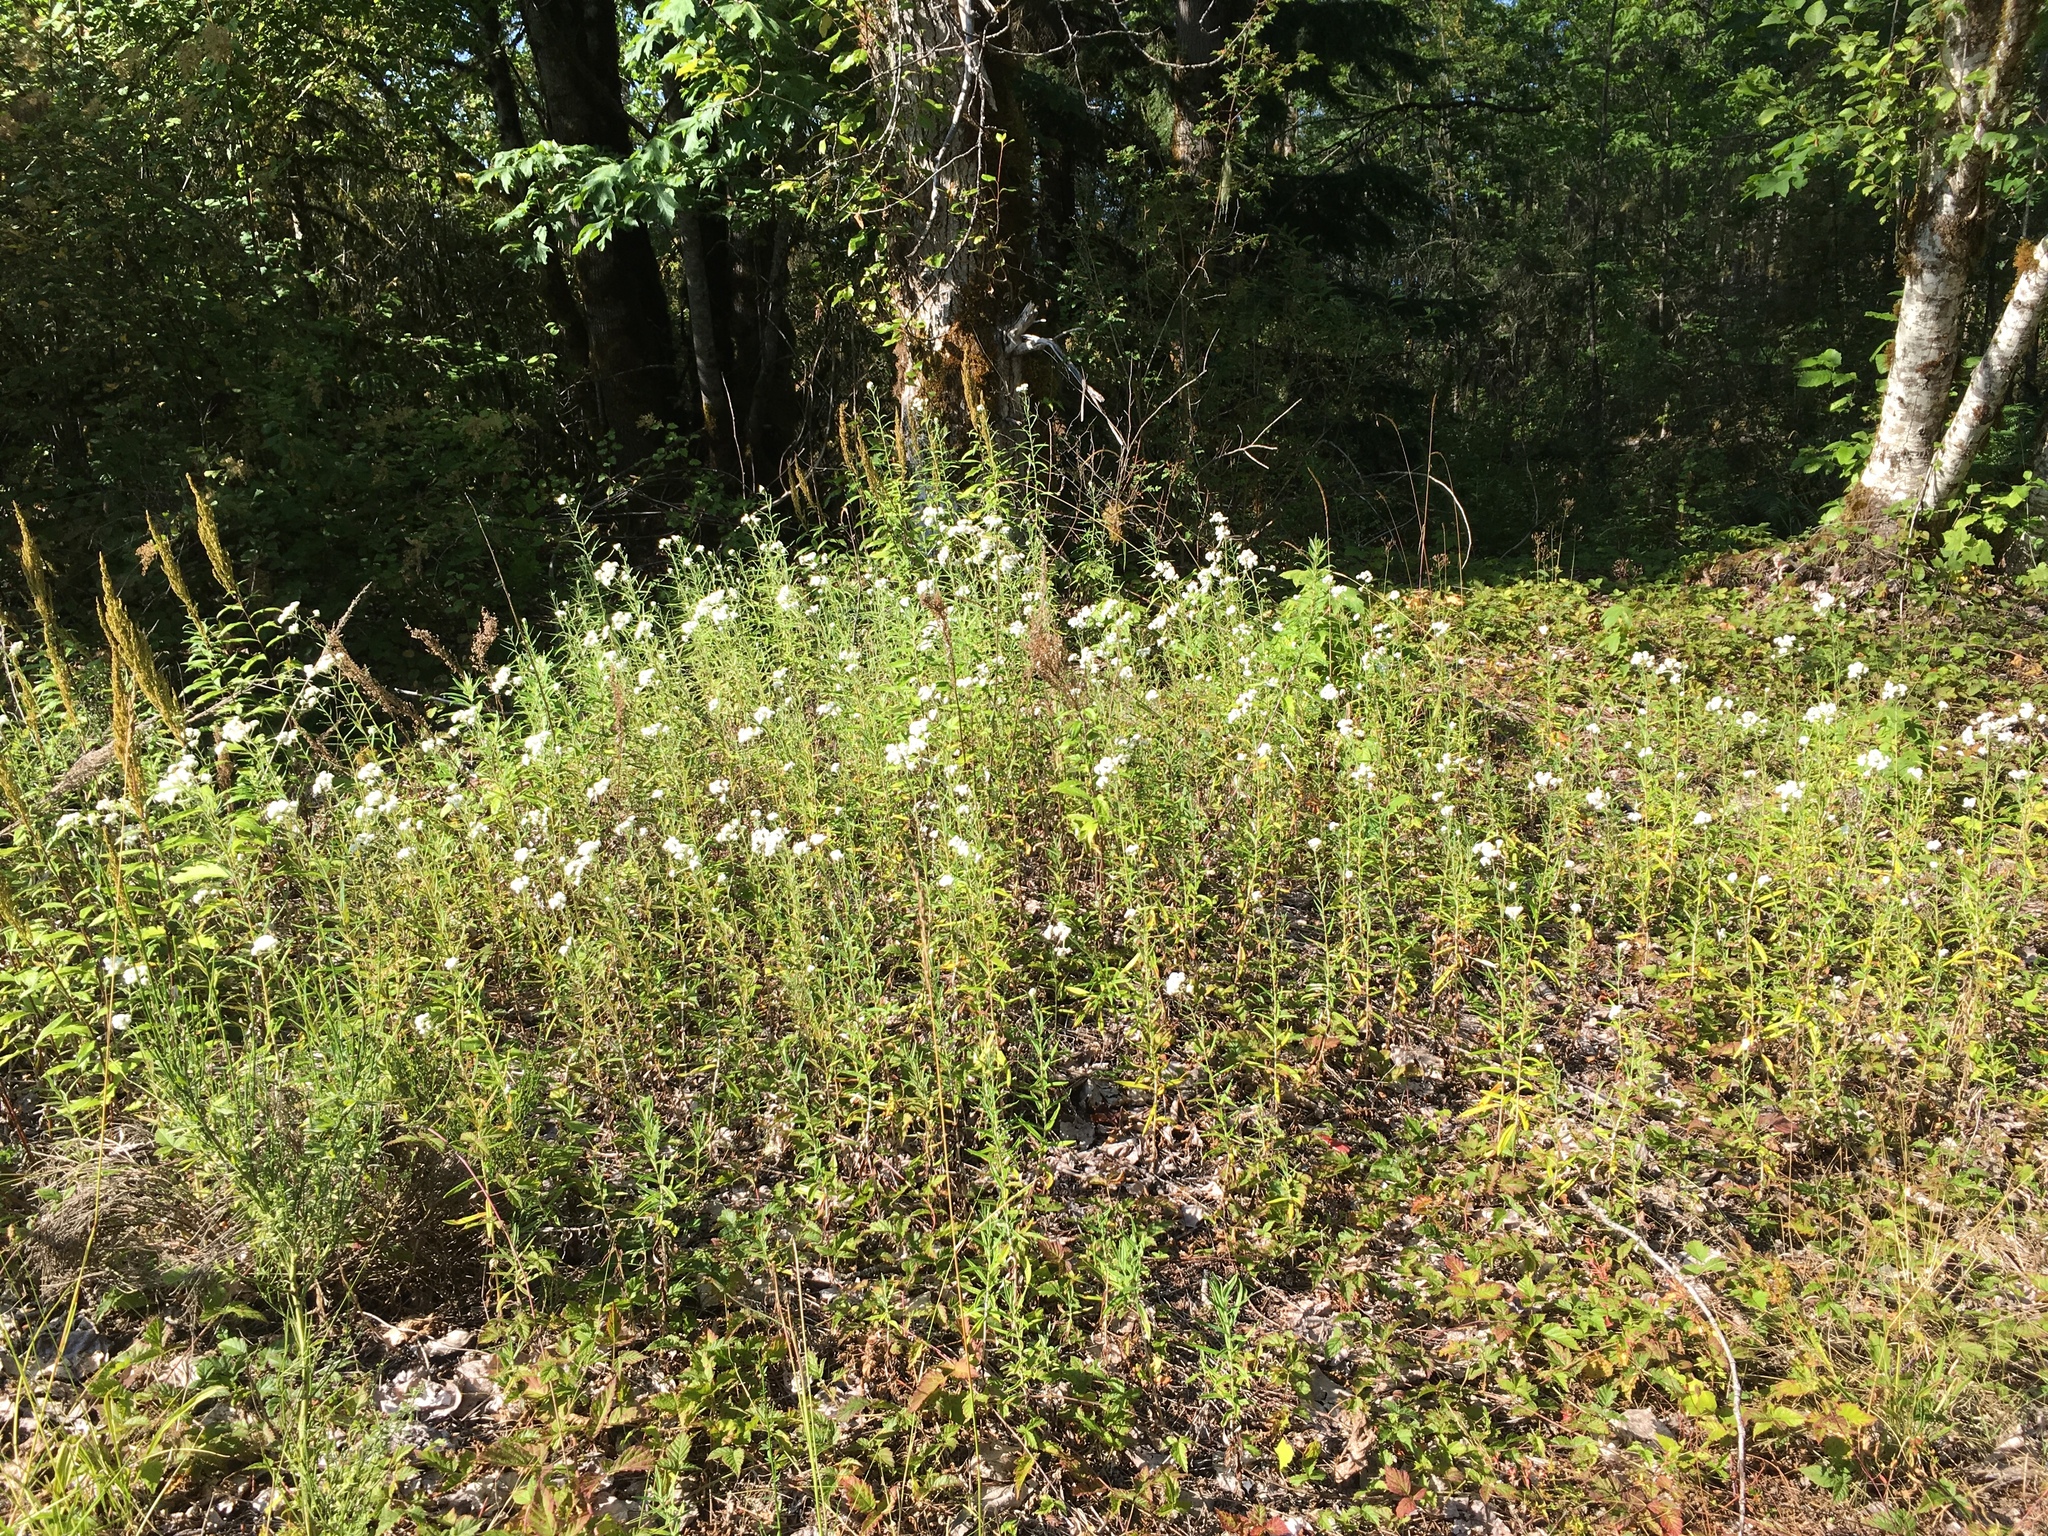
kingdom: Plantae
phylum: Tracheophyta
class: Magnoliopsida
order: Asterales
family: Asteraceae
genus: Anaphalis
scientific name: Anaphalis margaritacea
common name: Pearly everlasting
